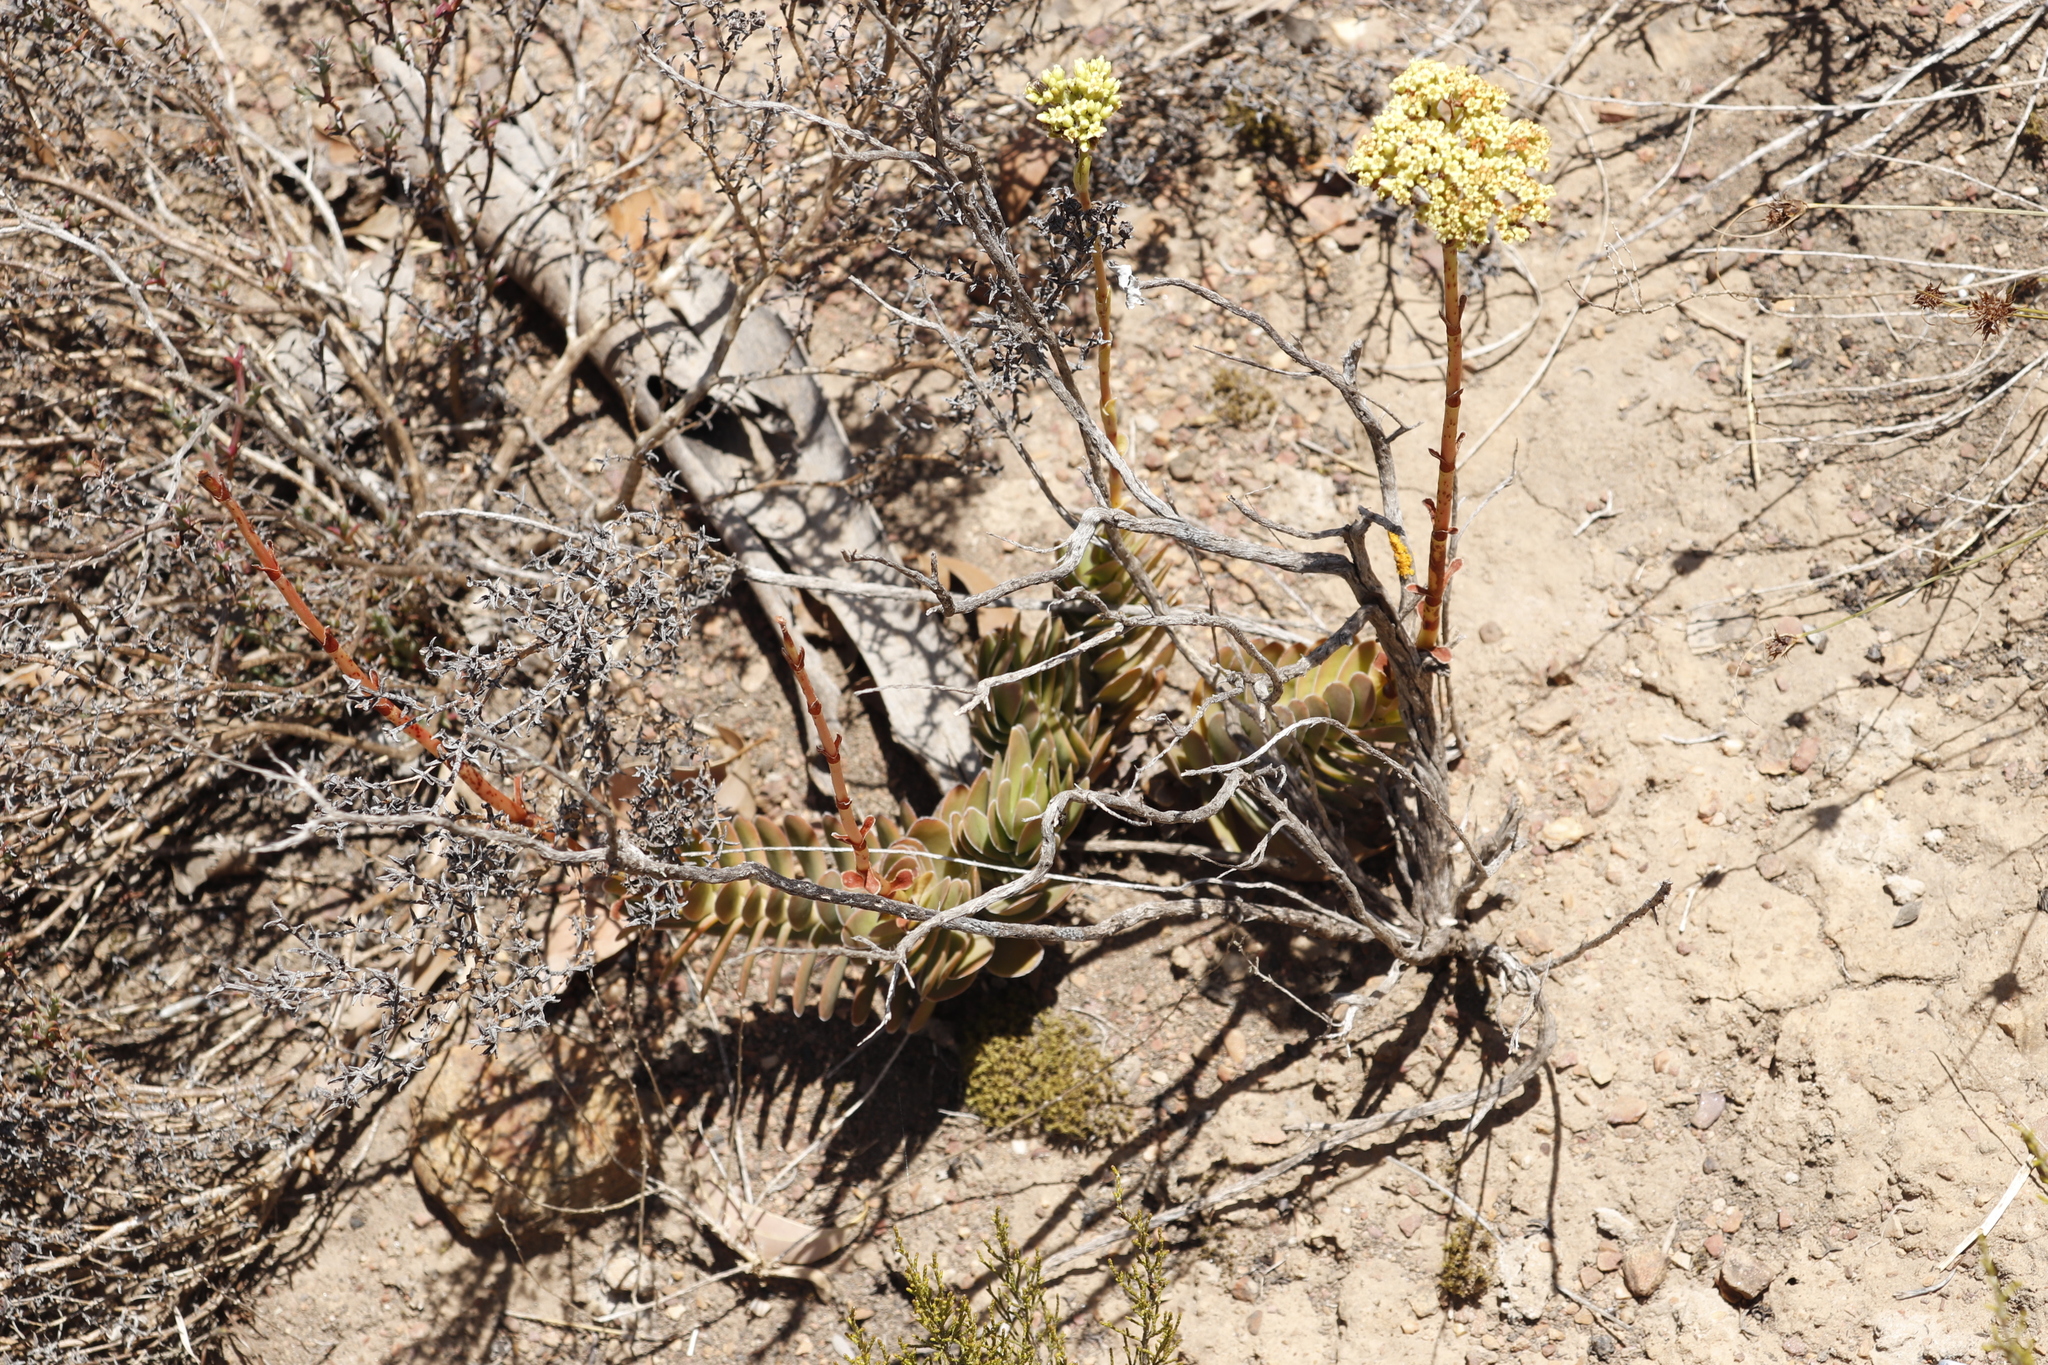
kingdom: Plantae
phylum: Tracheophyta
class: Magnoliopsida
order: Saxifragales
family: Crassulaceae
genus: Crassula
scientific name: Crassula ciliata
